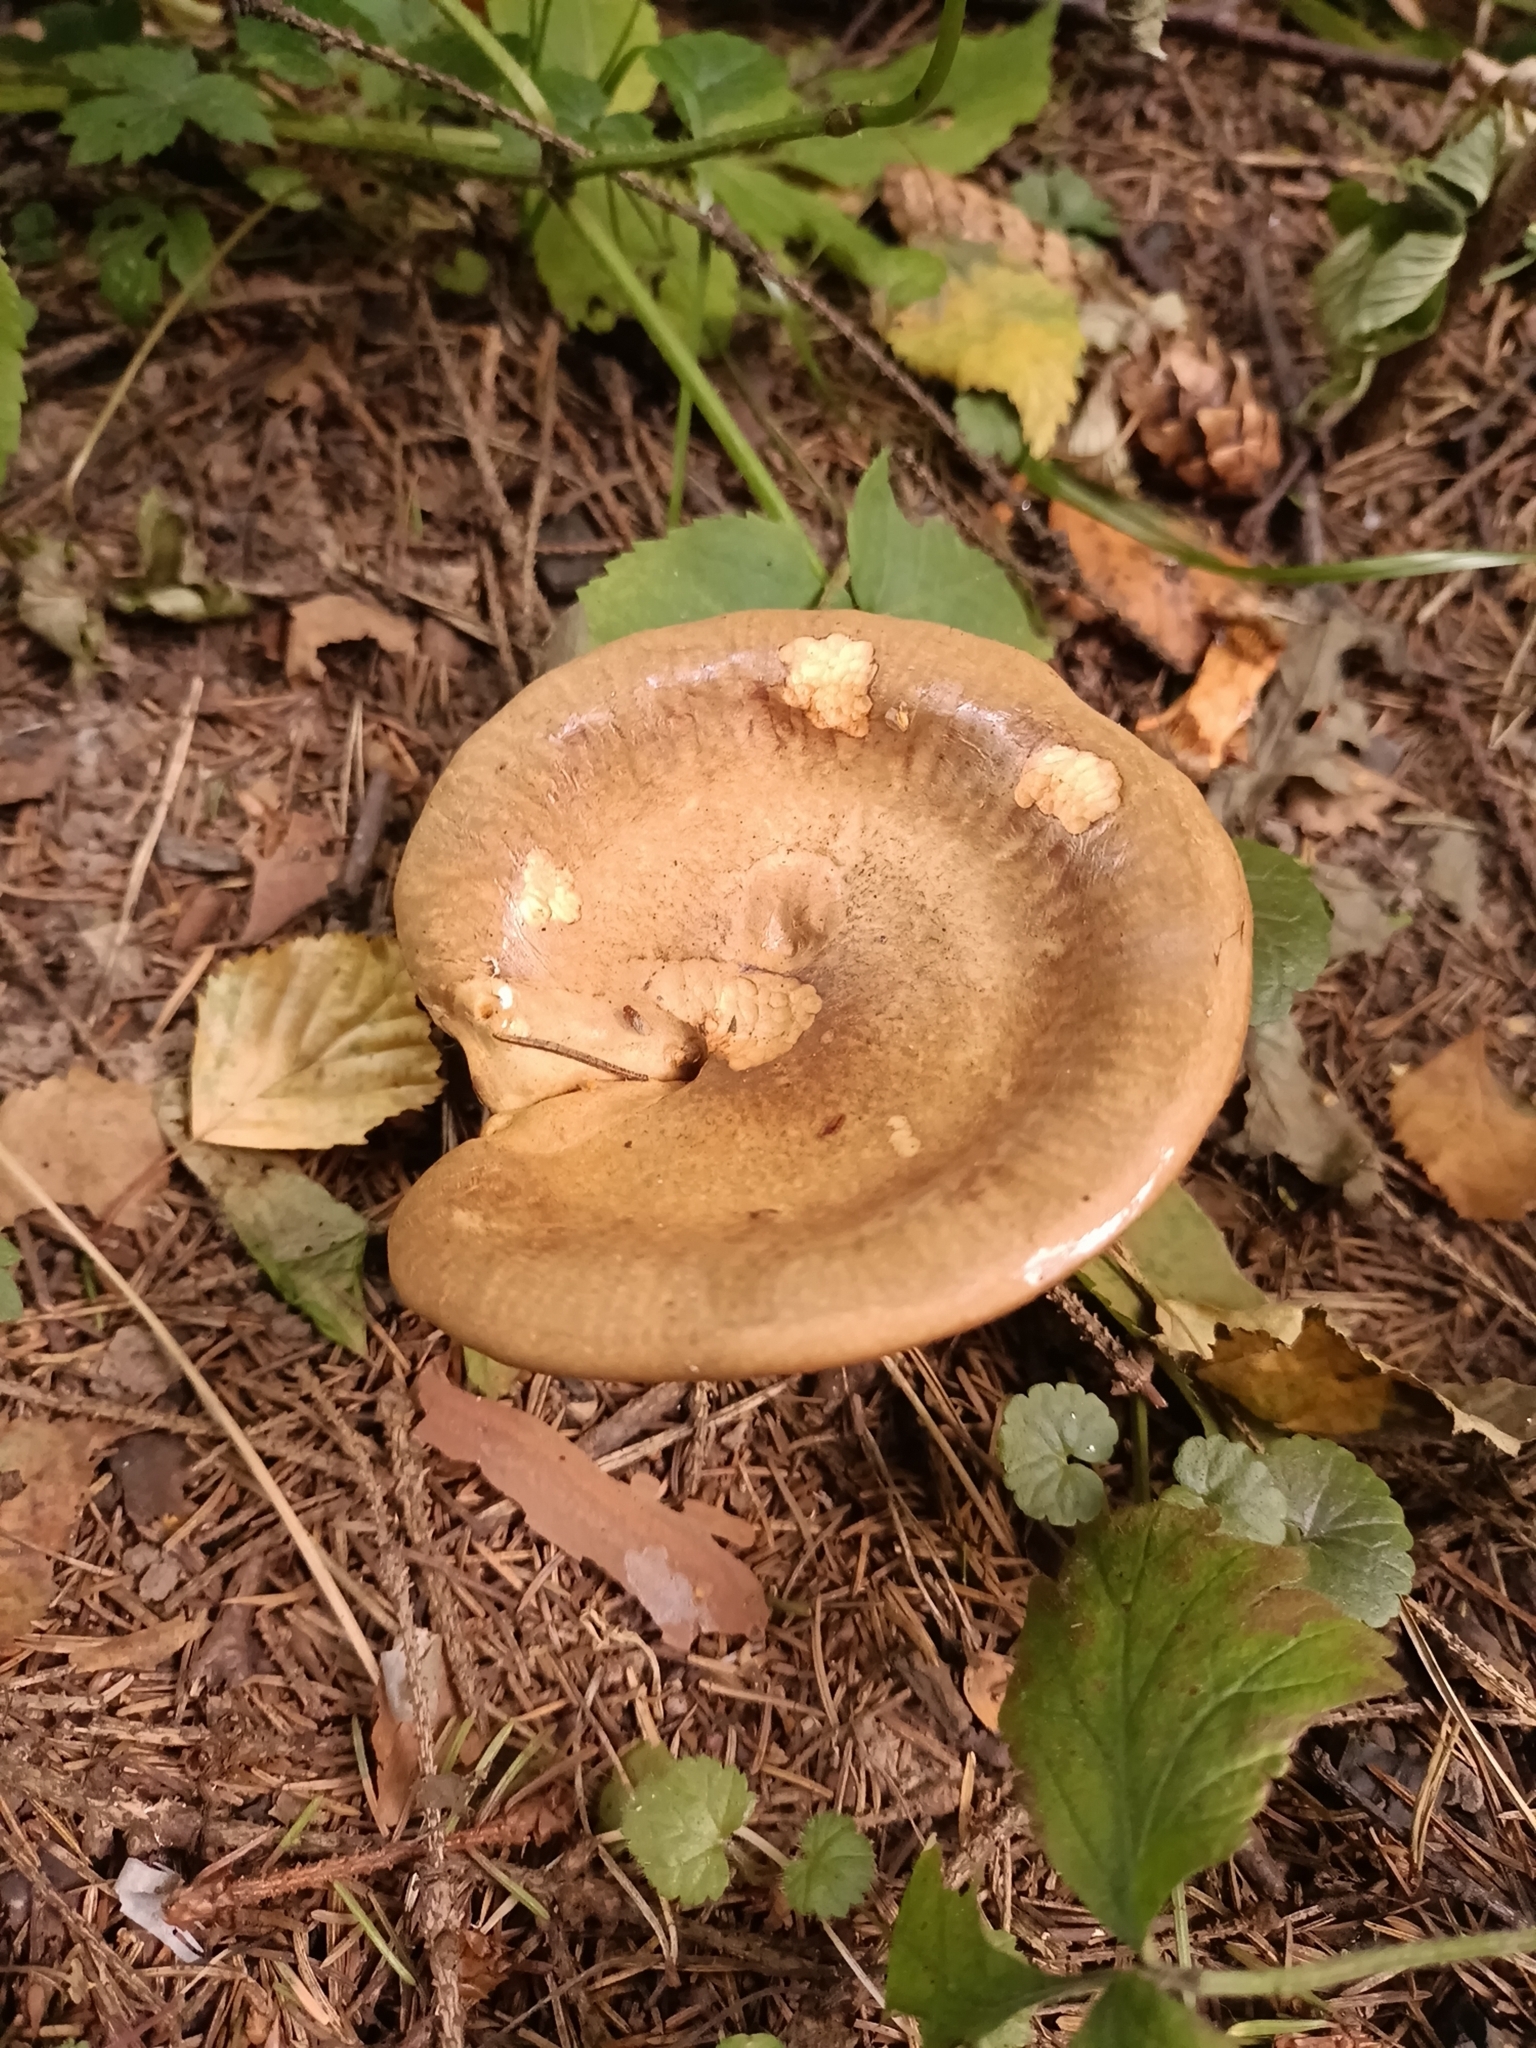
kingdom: Fungi
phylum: Basidiomycota
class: Agaricomycetes
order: Boletales
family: Paxillaceae
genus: Paxillus
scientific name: Paxillus involutus
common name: Brown roll rim
